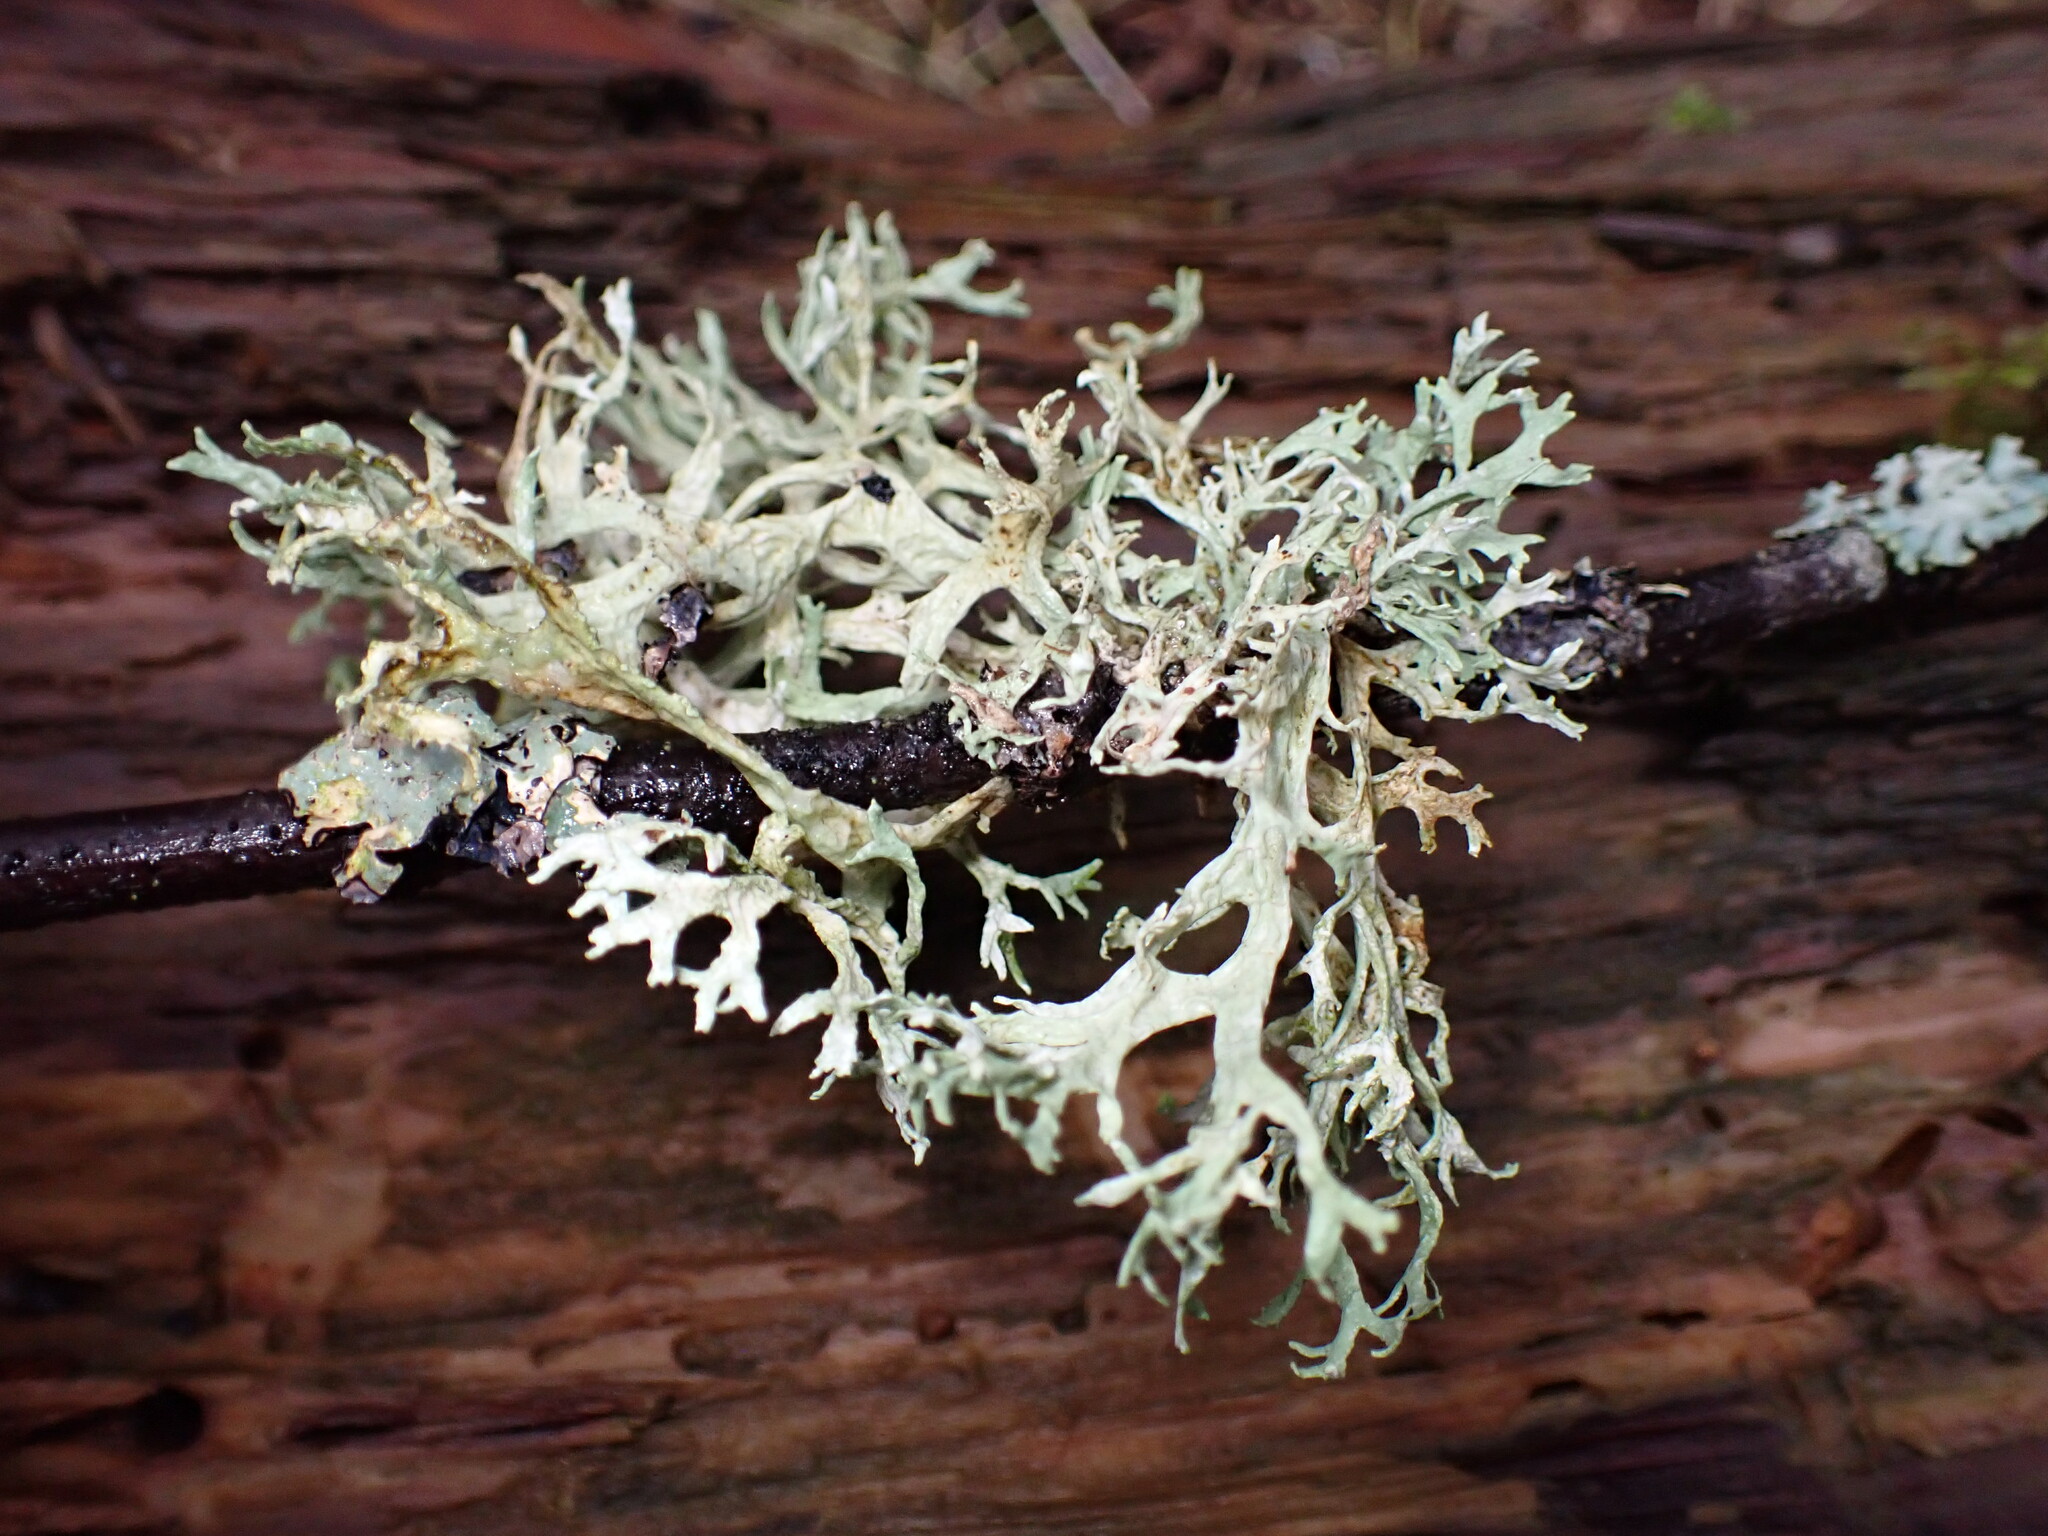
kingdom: Fungi
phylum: Ascomycota
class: Lecanoromycetes
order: Lecanorales
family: Parmeliaceae
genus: Evernia
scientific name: Evernia prunastri
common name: Oak moss
